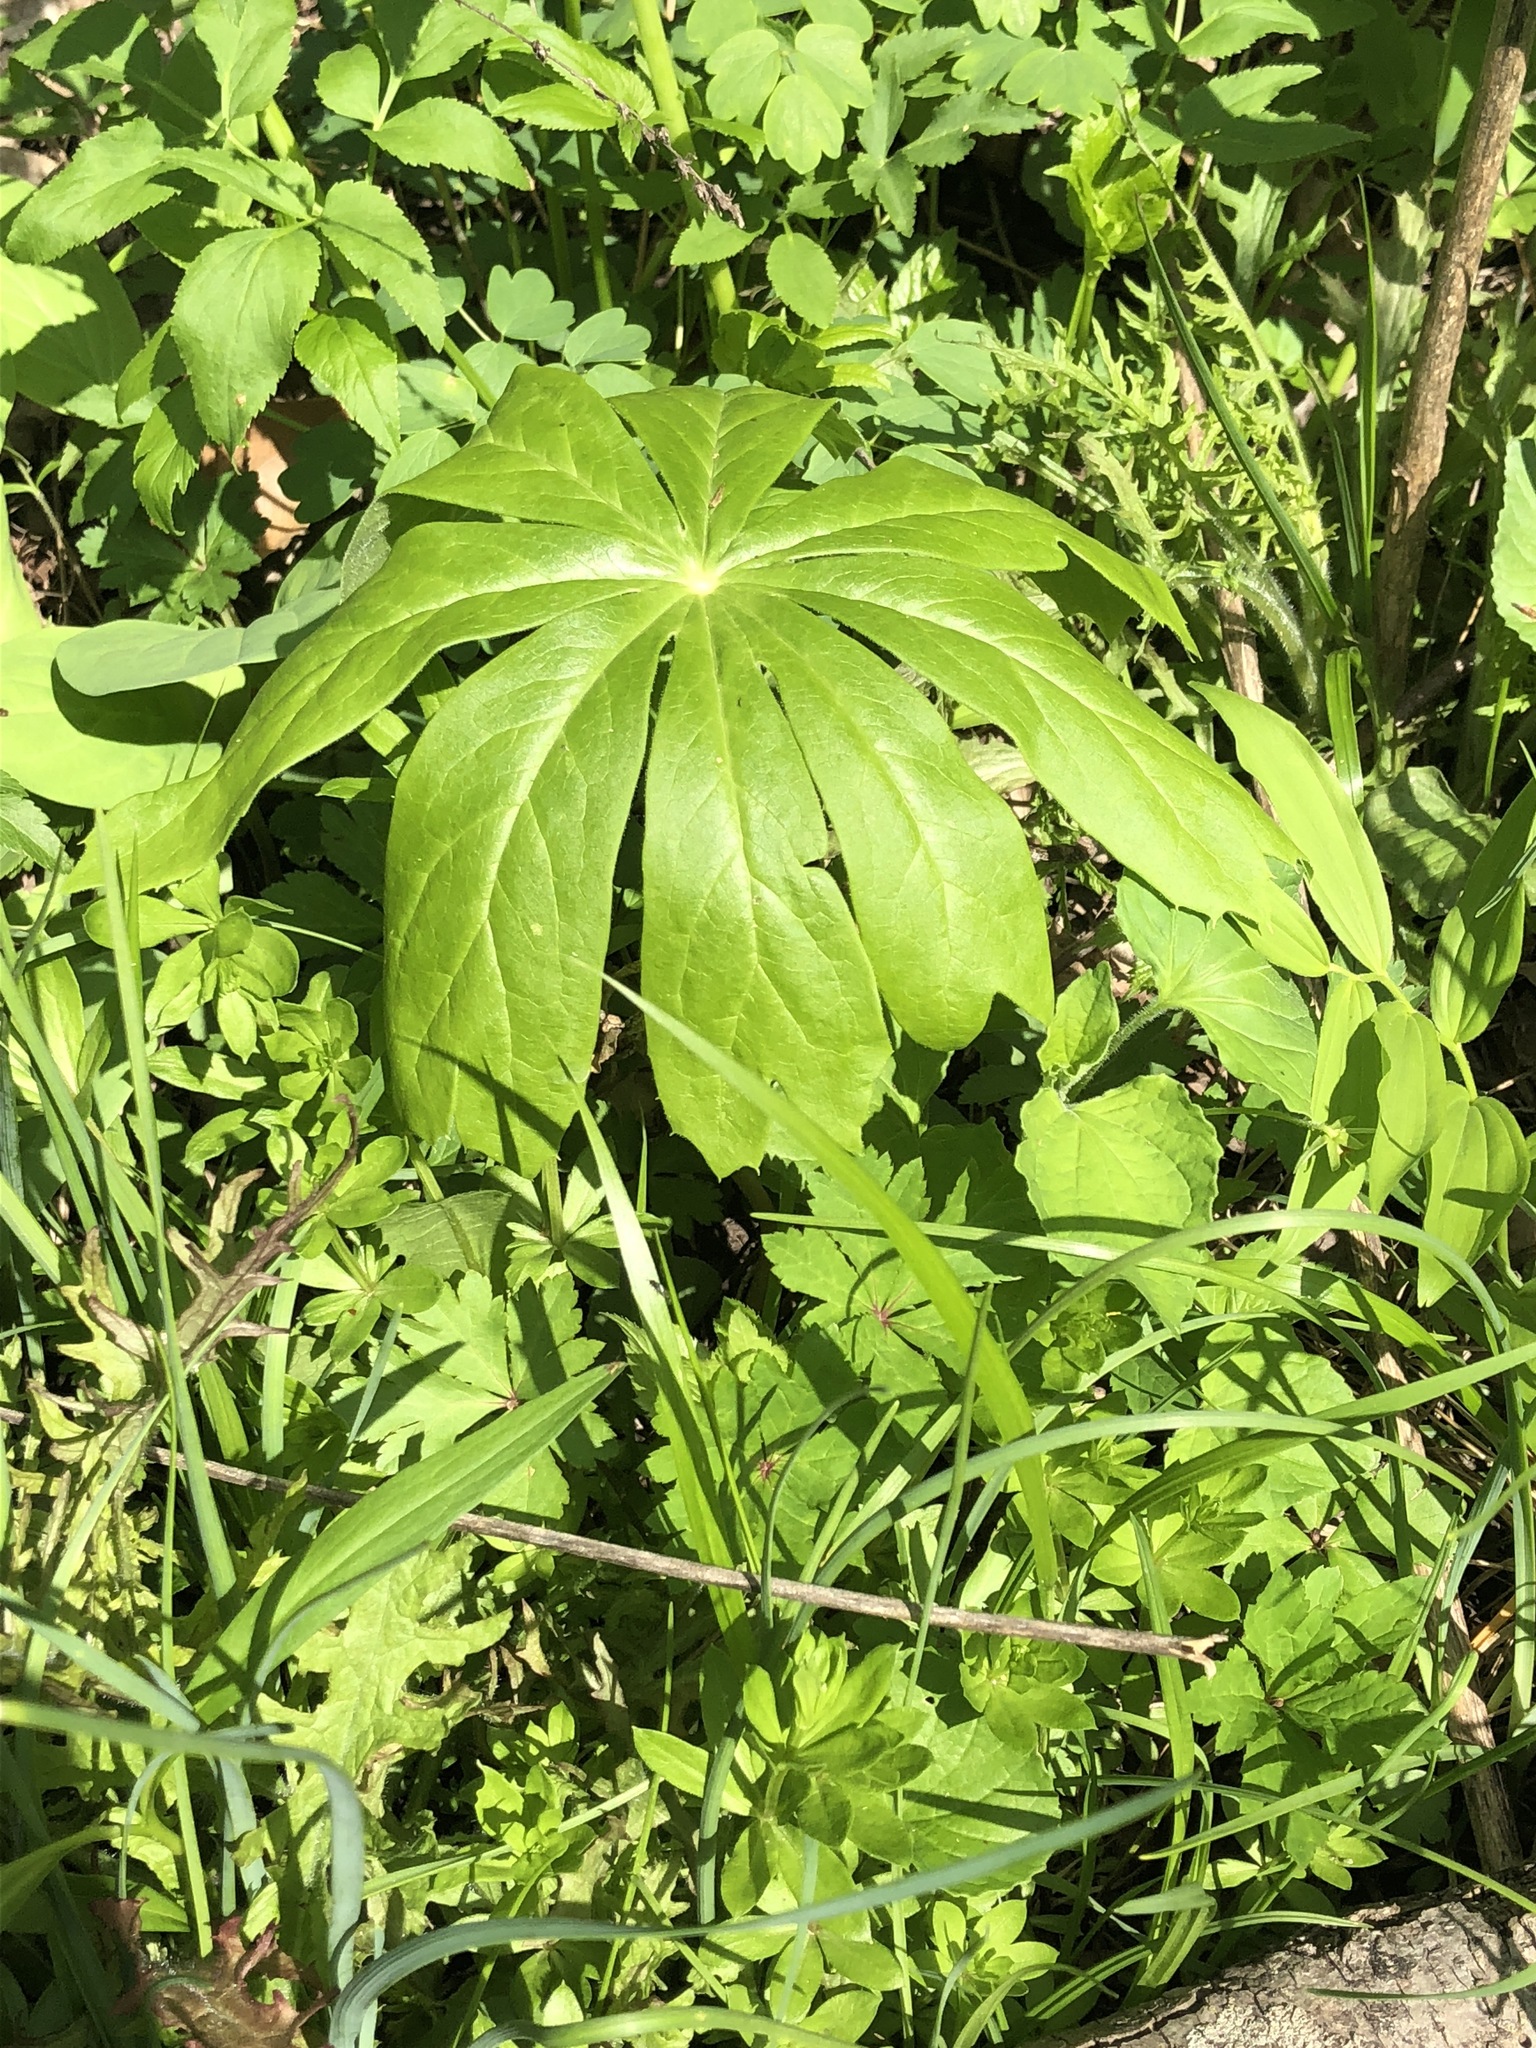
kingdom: Plantae
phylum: Tracheophyta
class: Magnoliopsida
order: Ranunculales
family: Berberidaceae
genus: Podophyllum
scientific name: Podophyllum peltatum
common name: Wild mandrake
